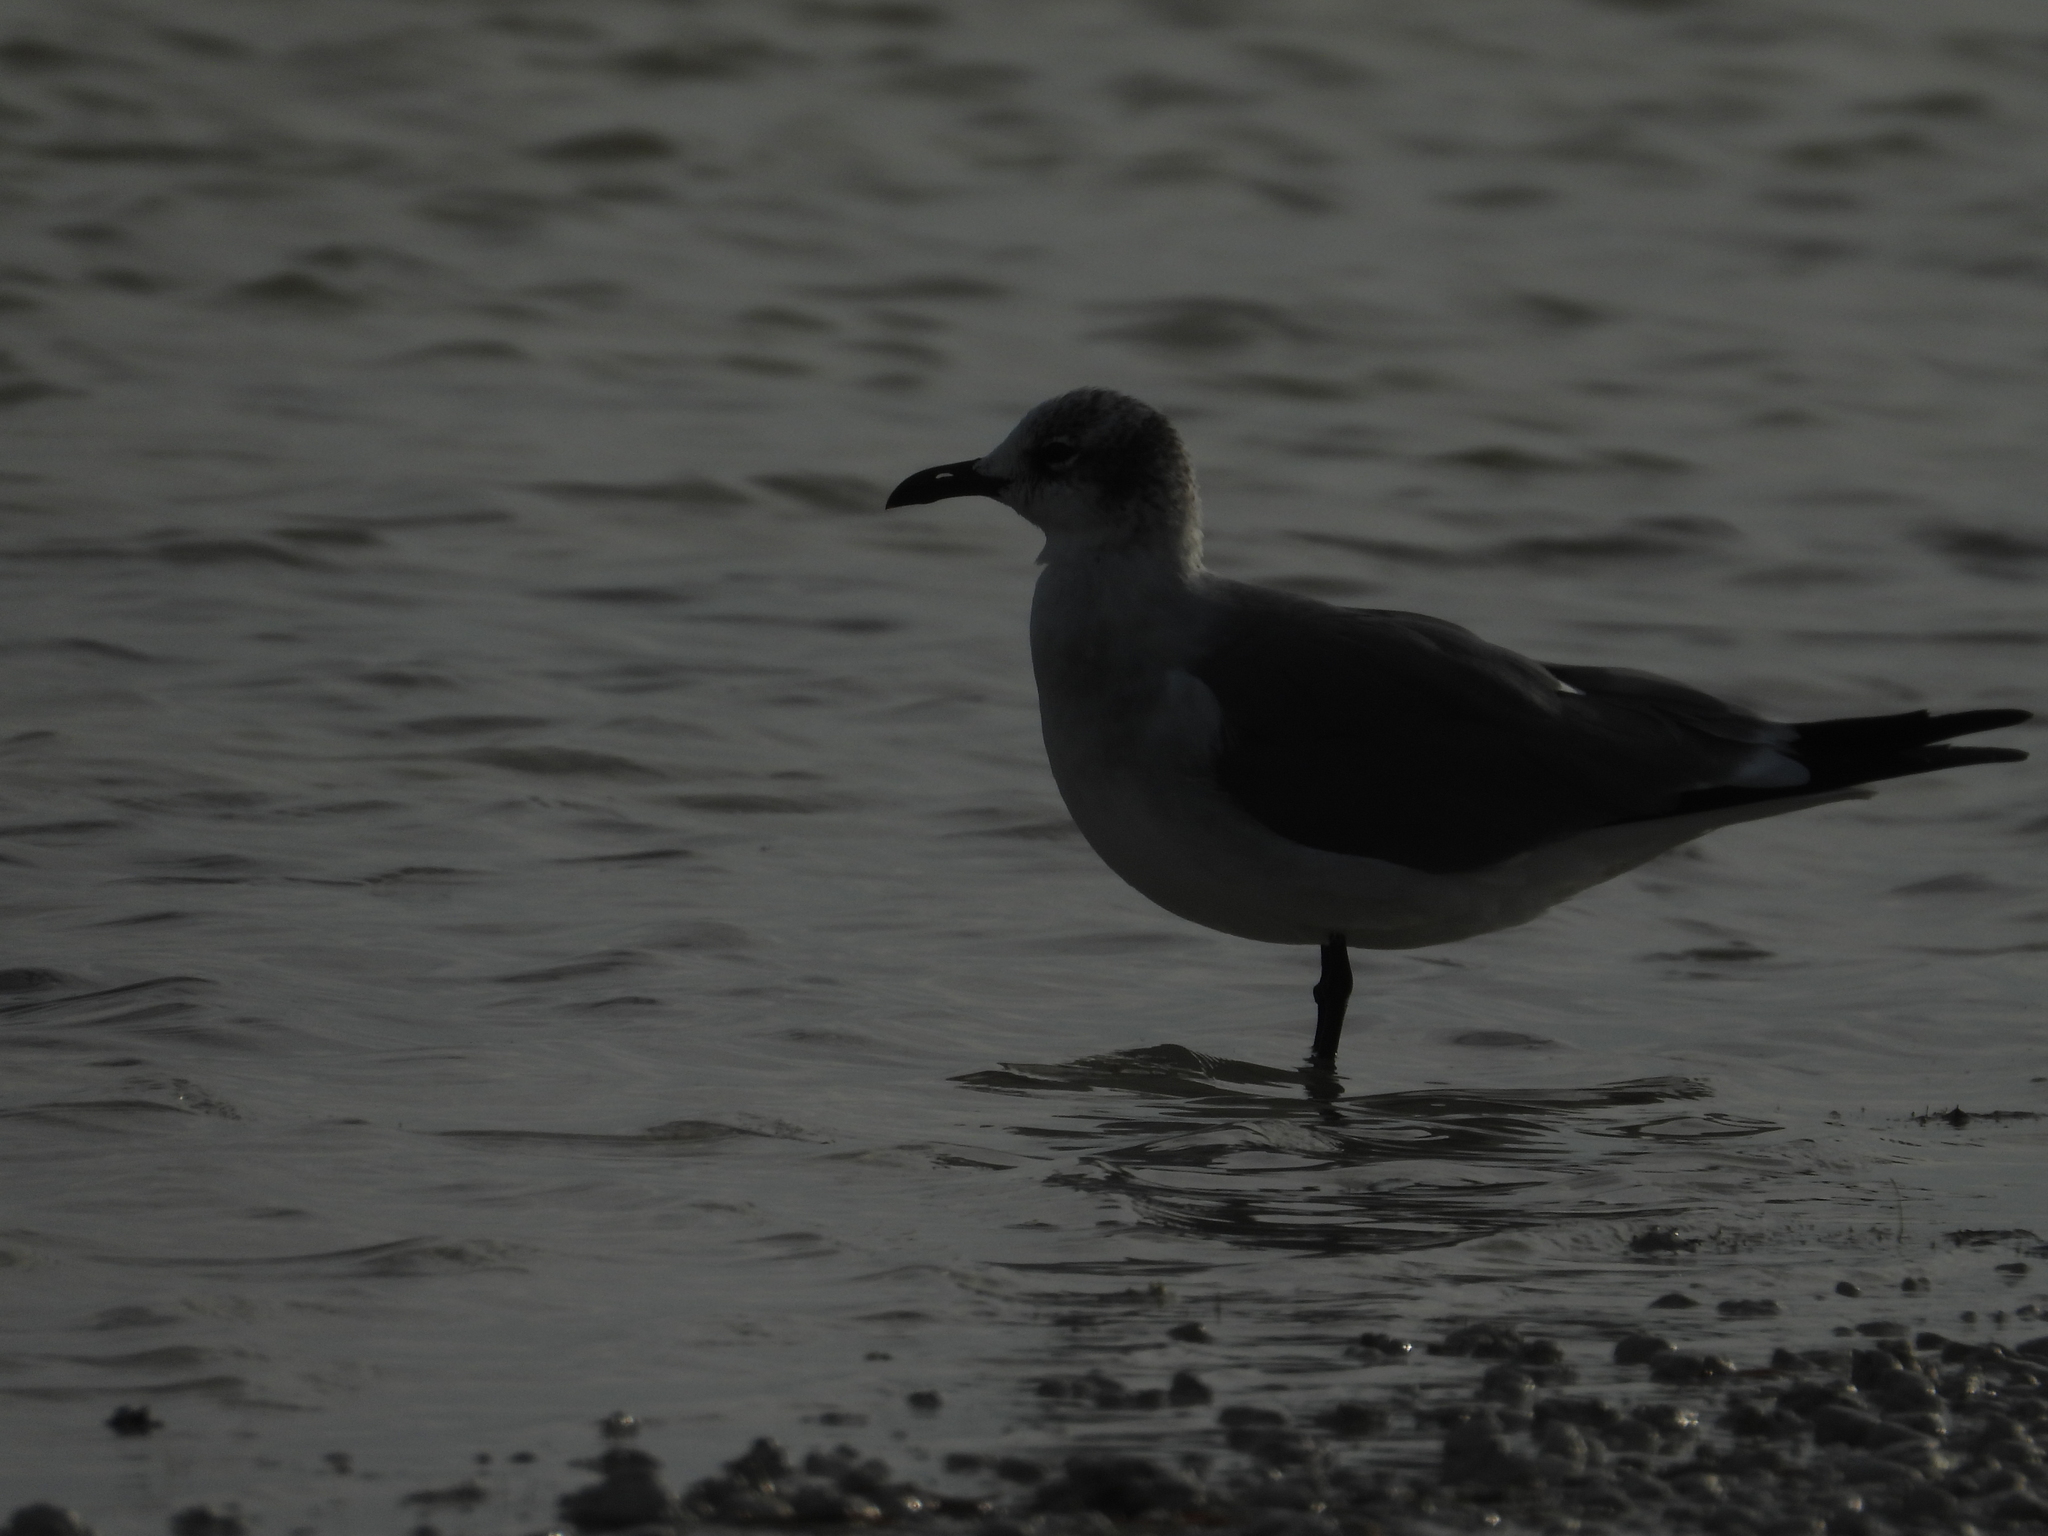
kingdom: Animalia
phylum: Chordata
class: Aves
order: Charadriiformes
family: Laridae
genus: Leucophaeus
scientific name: Leucophaeus atricilla
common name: Laughing gull
